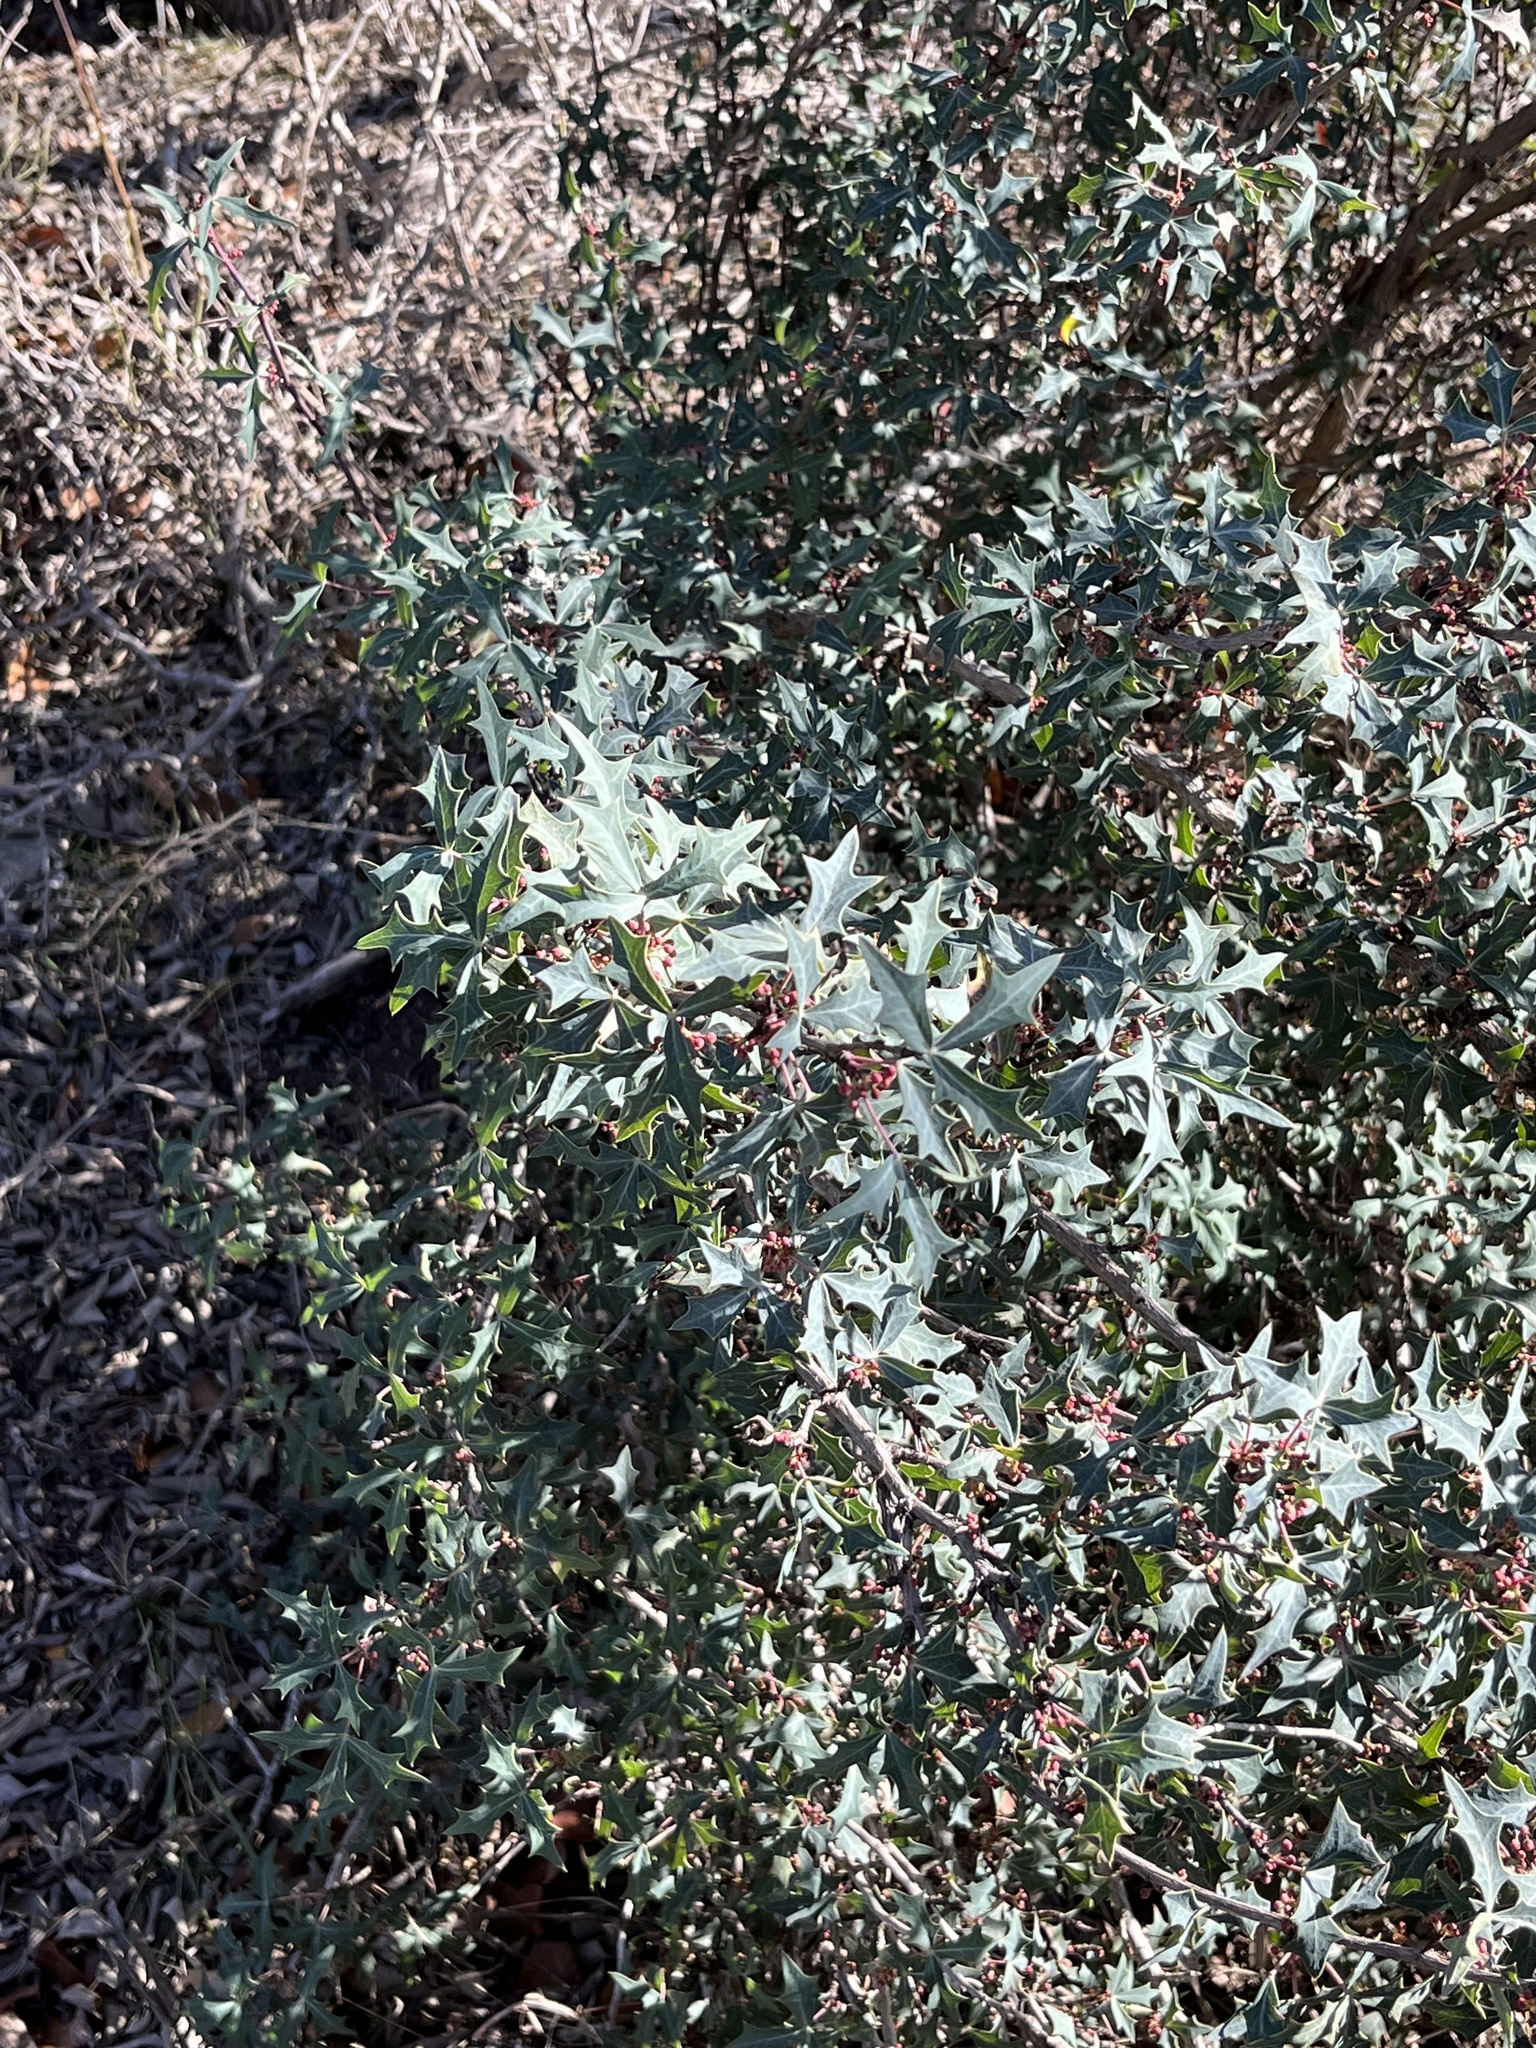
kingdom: Plantae
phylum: Tracheophyta
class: Magnoliopsida
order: Ranunculales
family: Berberidaceae
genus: Alloberberis
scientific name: Alloberberis trifoliolata
